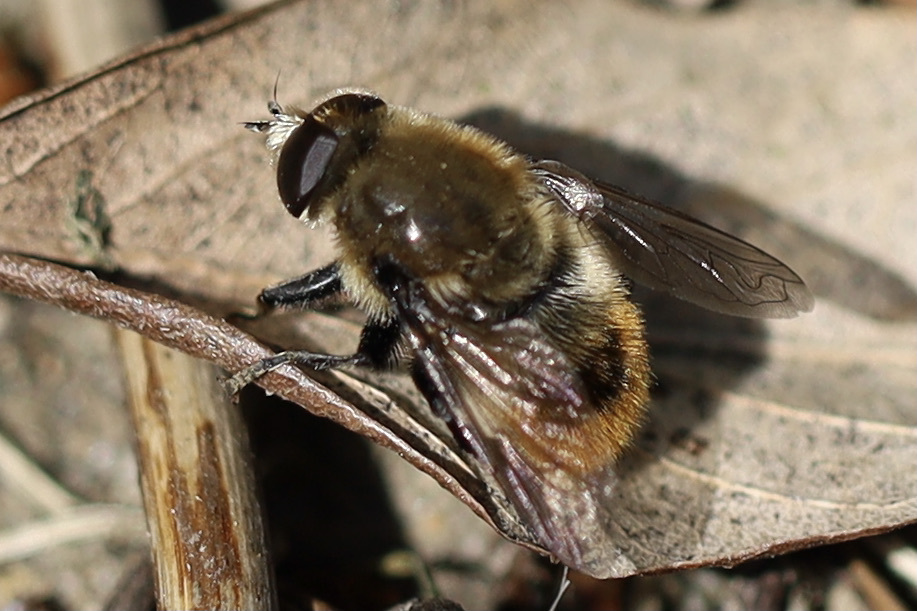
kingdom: Animalia
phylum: Arthropoda
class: Insecta
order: Diptera
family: Syrphidae
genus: Merodon
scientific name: Merodon equestris
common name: Greater bulb-fly
